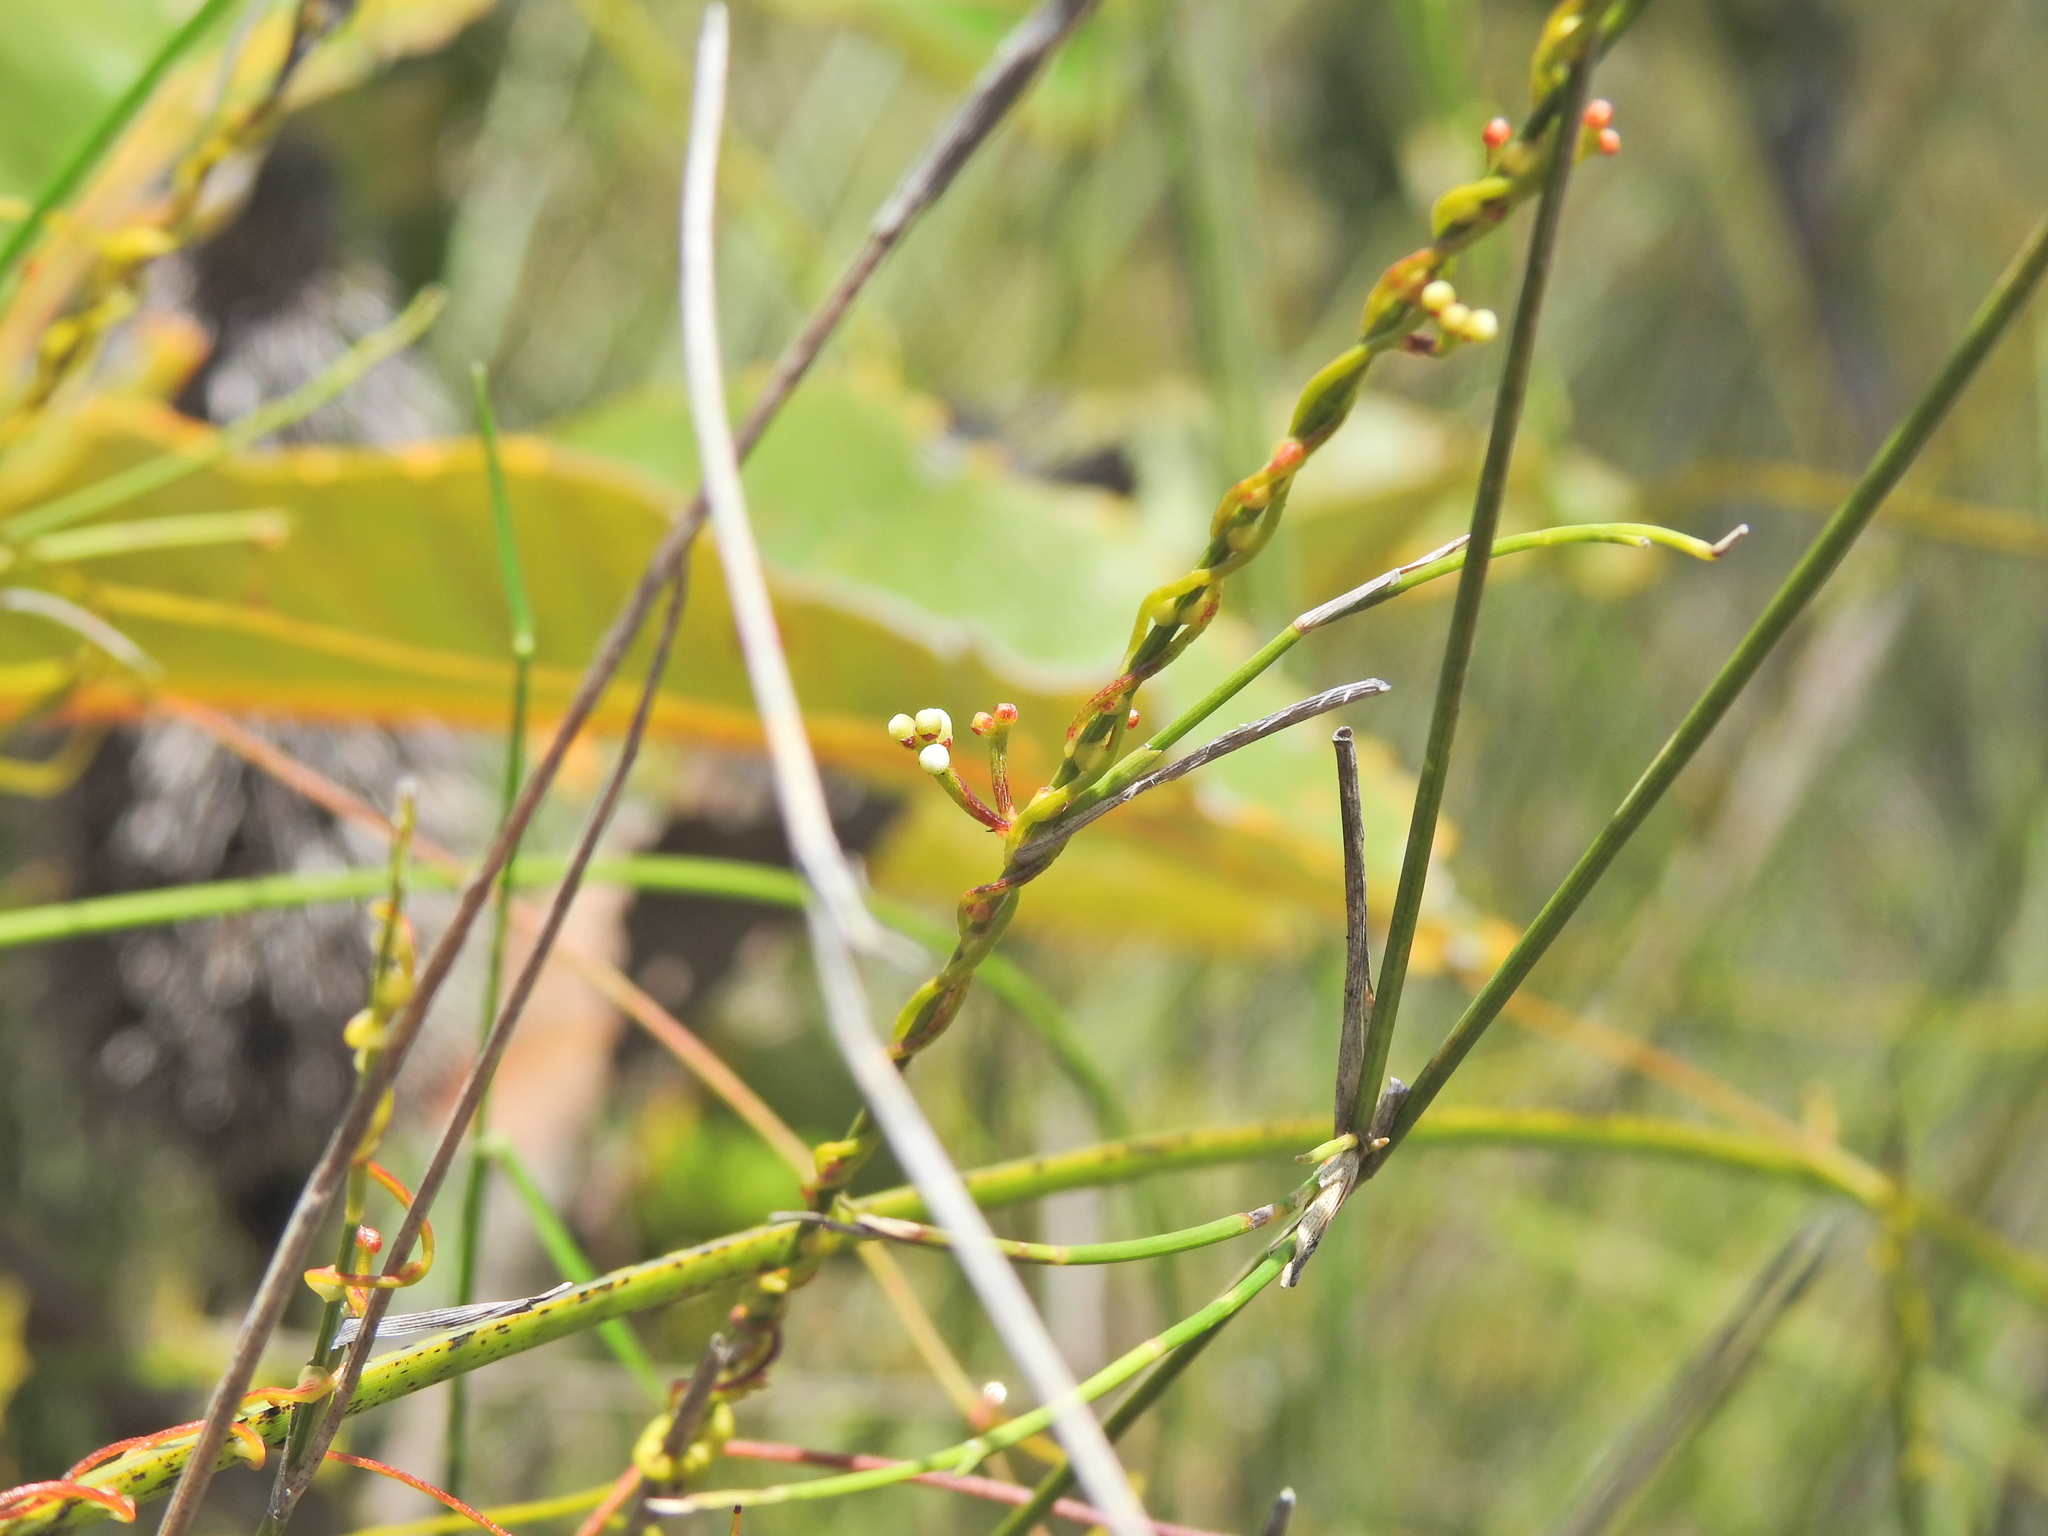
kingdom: Plantae
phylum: Tracheophyta
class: Magnoliopsida
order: Laurales
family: Lauraceae
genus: Cassytha
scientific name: Cassytha glabella
